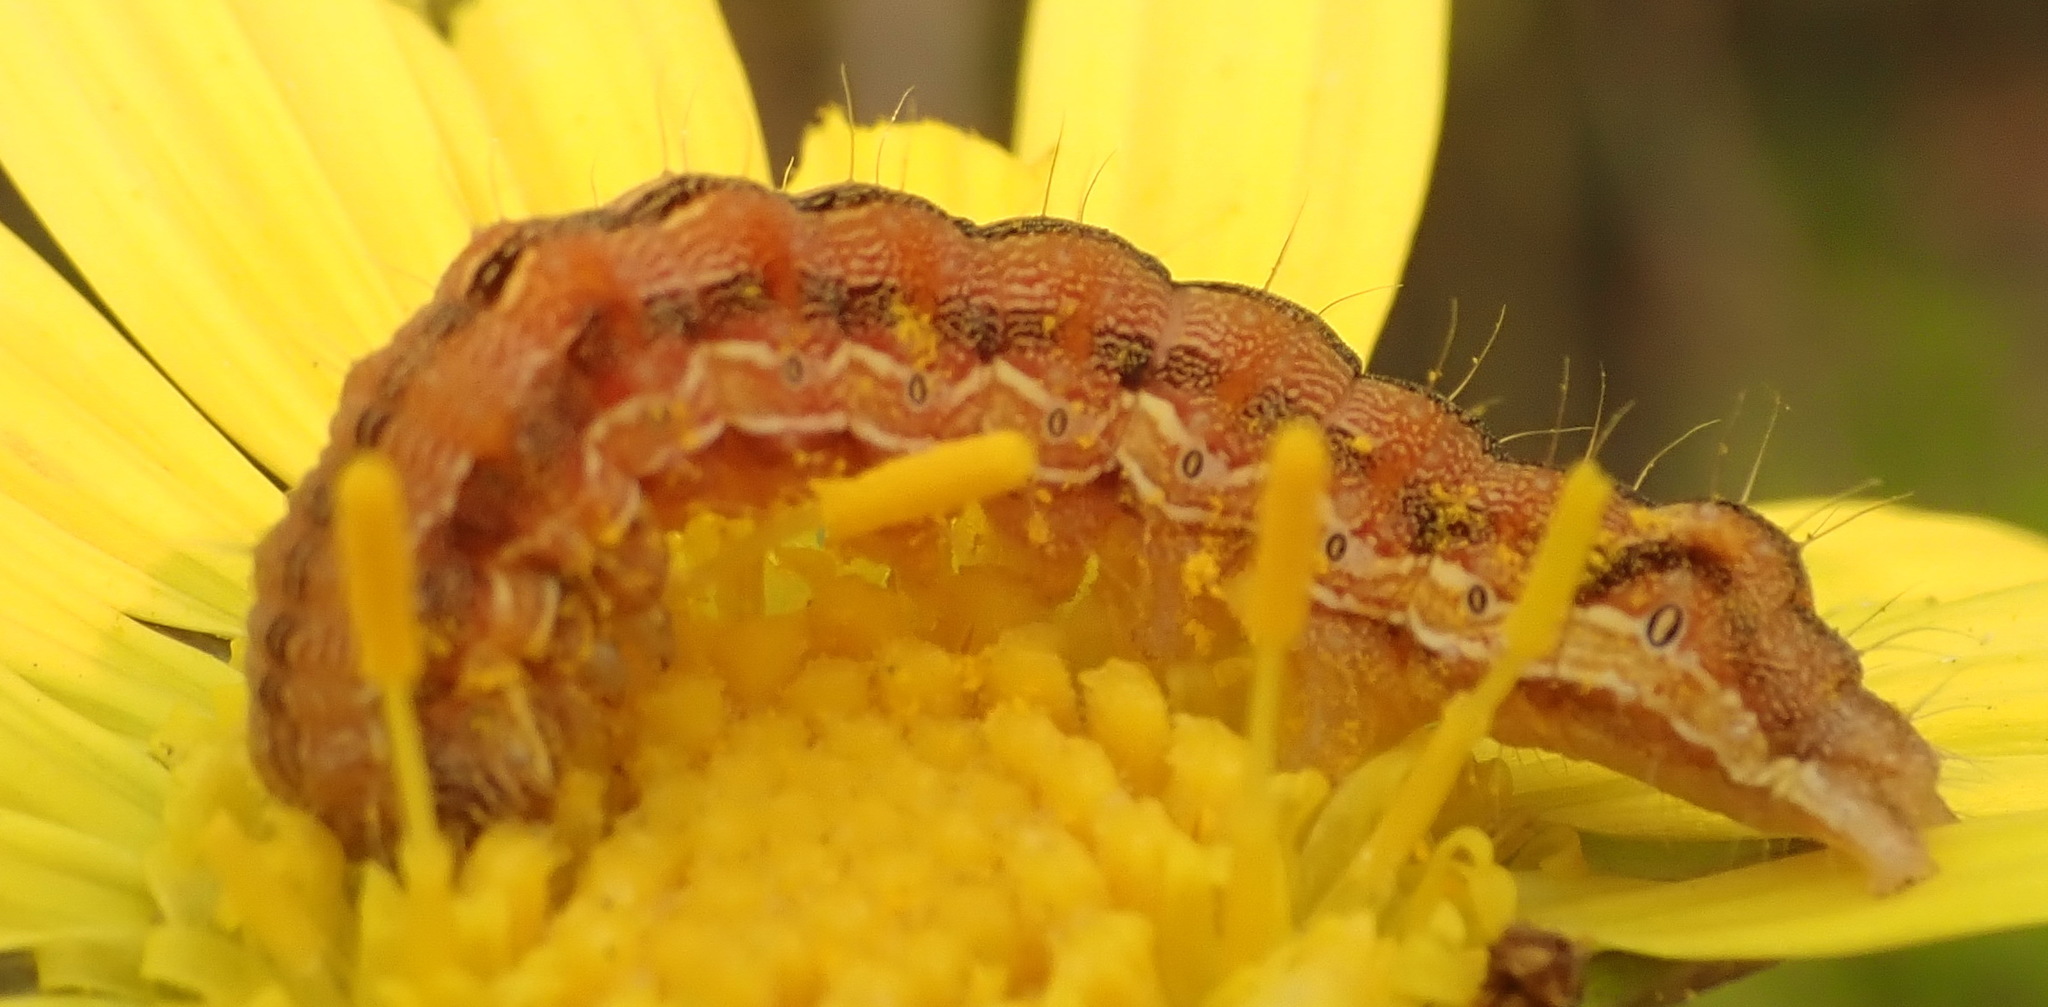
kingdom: Animalia
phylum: Arthropoda
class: Insecta
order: Lepidoptera
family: Noctuidae
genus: Helicoverpa
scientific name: Helicoverpa armigera
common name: Cotton bollworm
